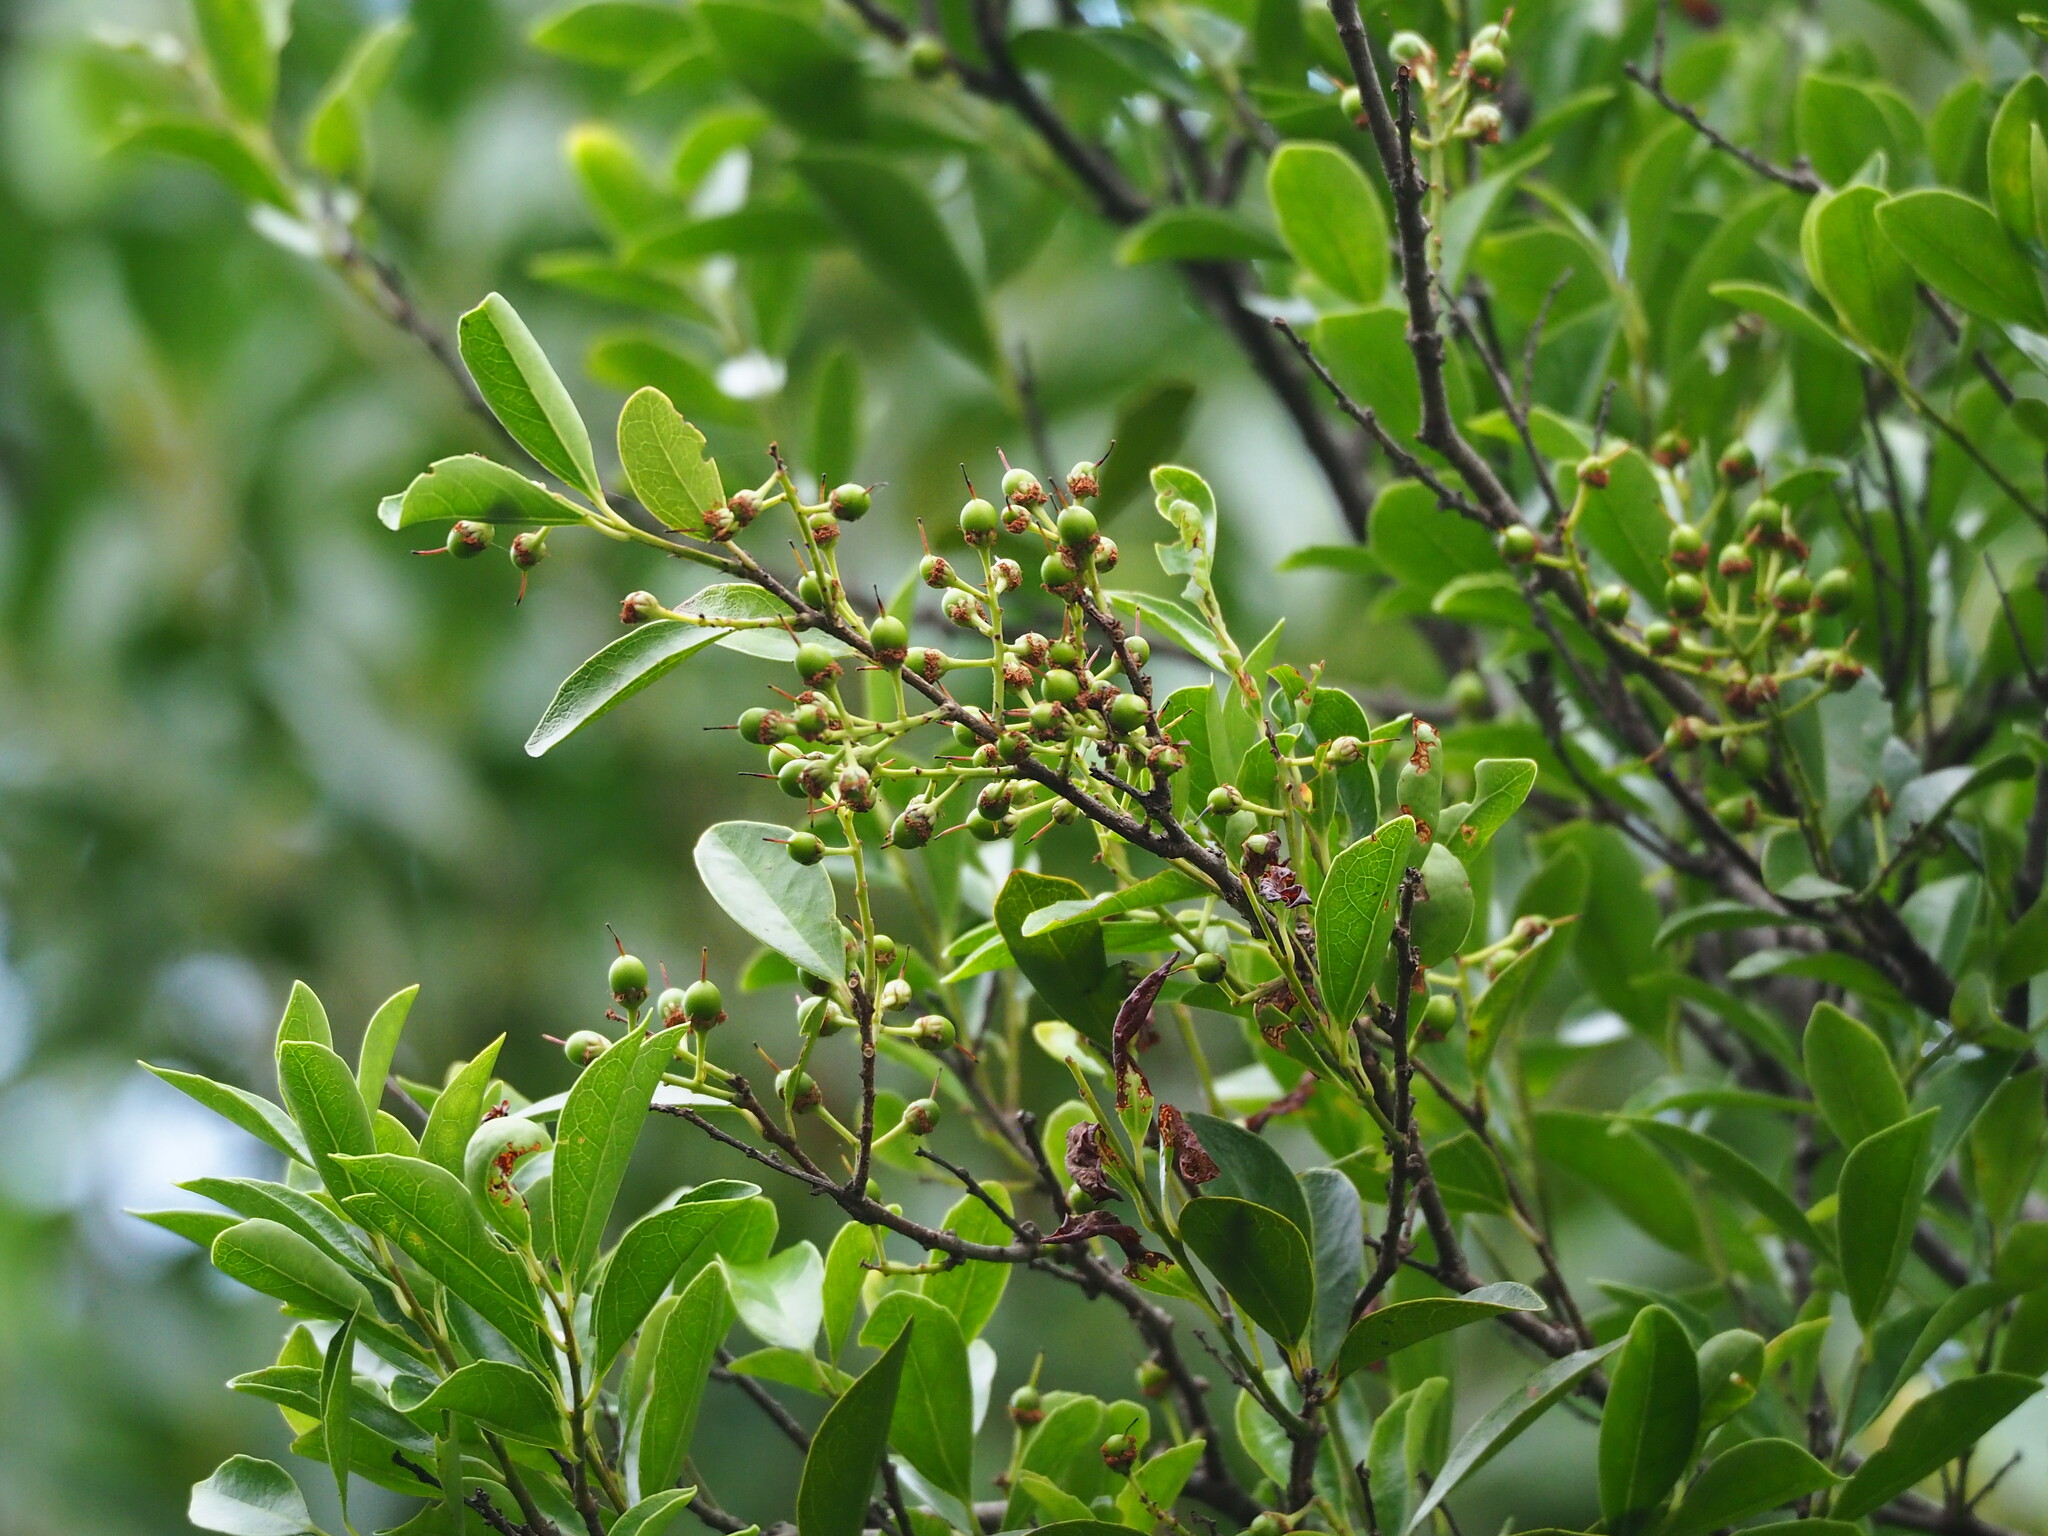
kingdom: Plantae
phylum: Tracheophyta
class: Magnoliopsida
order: Malpighiales
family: Salicaceae
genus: Scolopia
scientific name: Scolopia oldhamii
